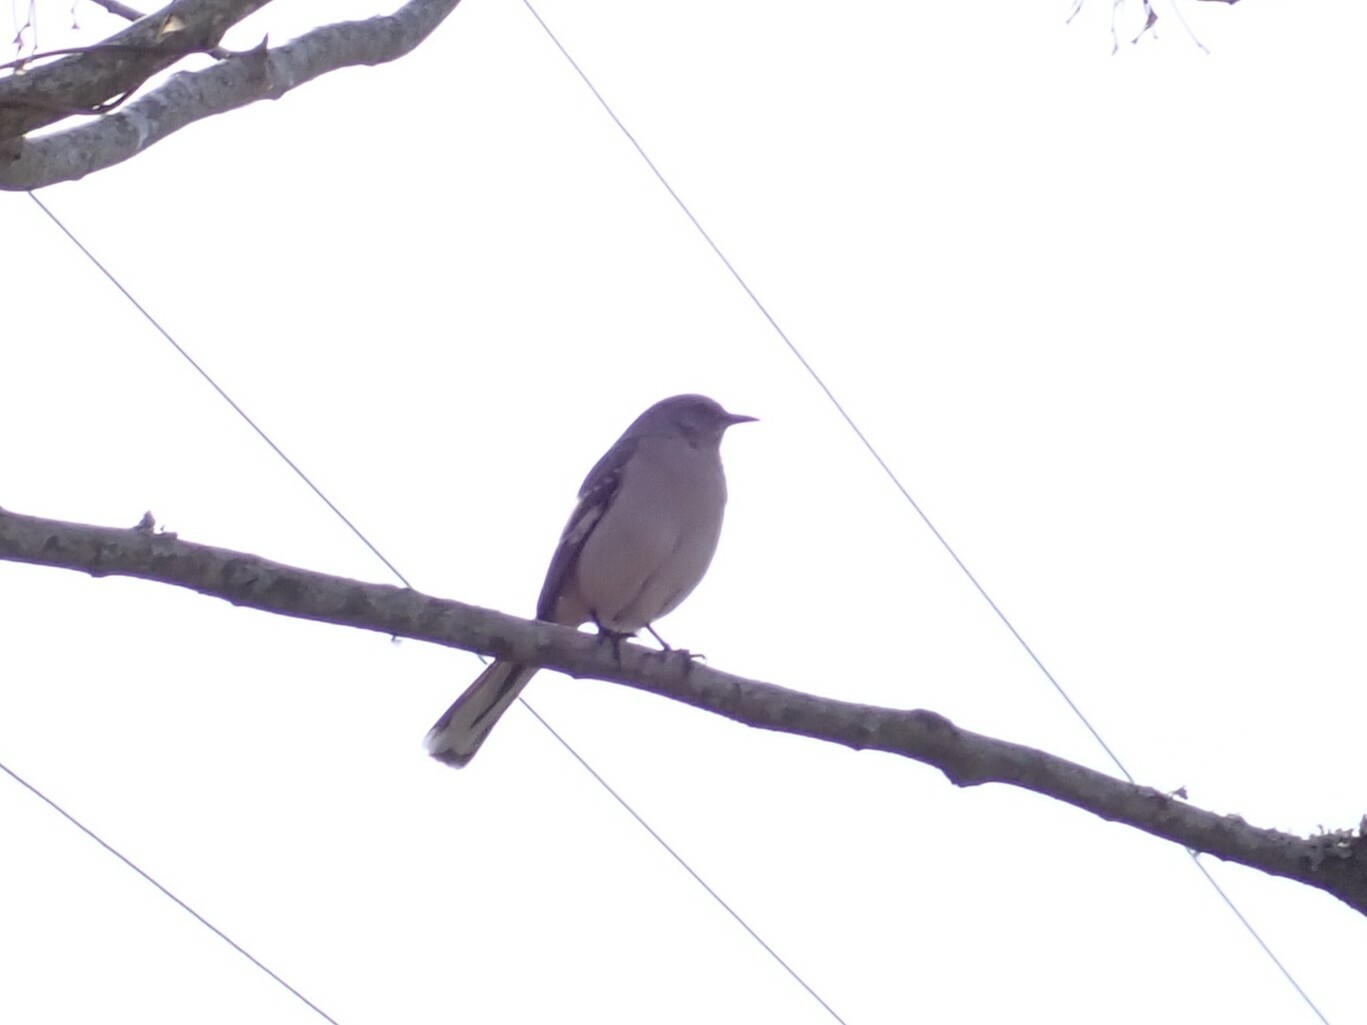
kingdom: Animalia
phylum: Chordata
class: Aves
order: Passeriformes
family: Mimidae
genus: Mimus
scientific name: Mimus polyglottos
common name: Northern mockingbird
